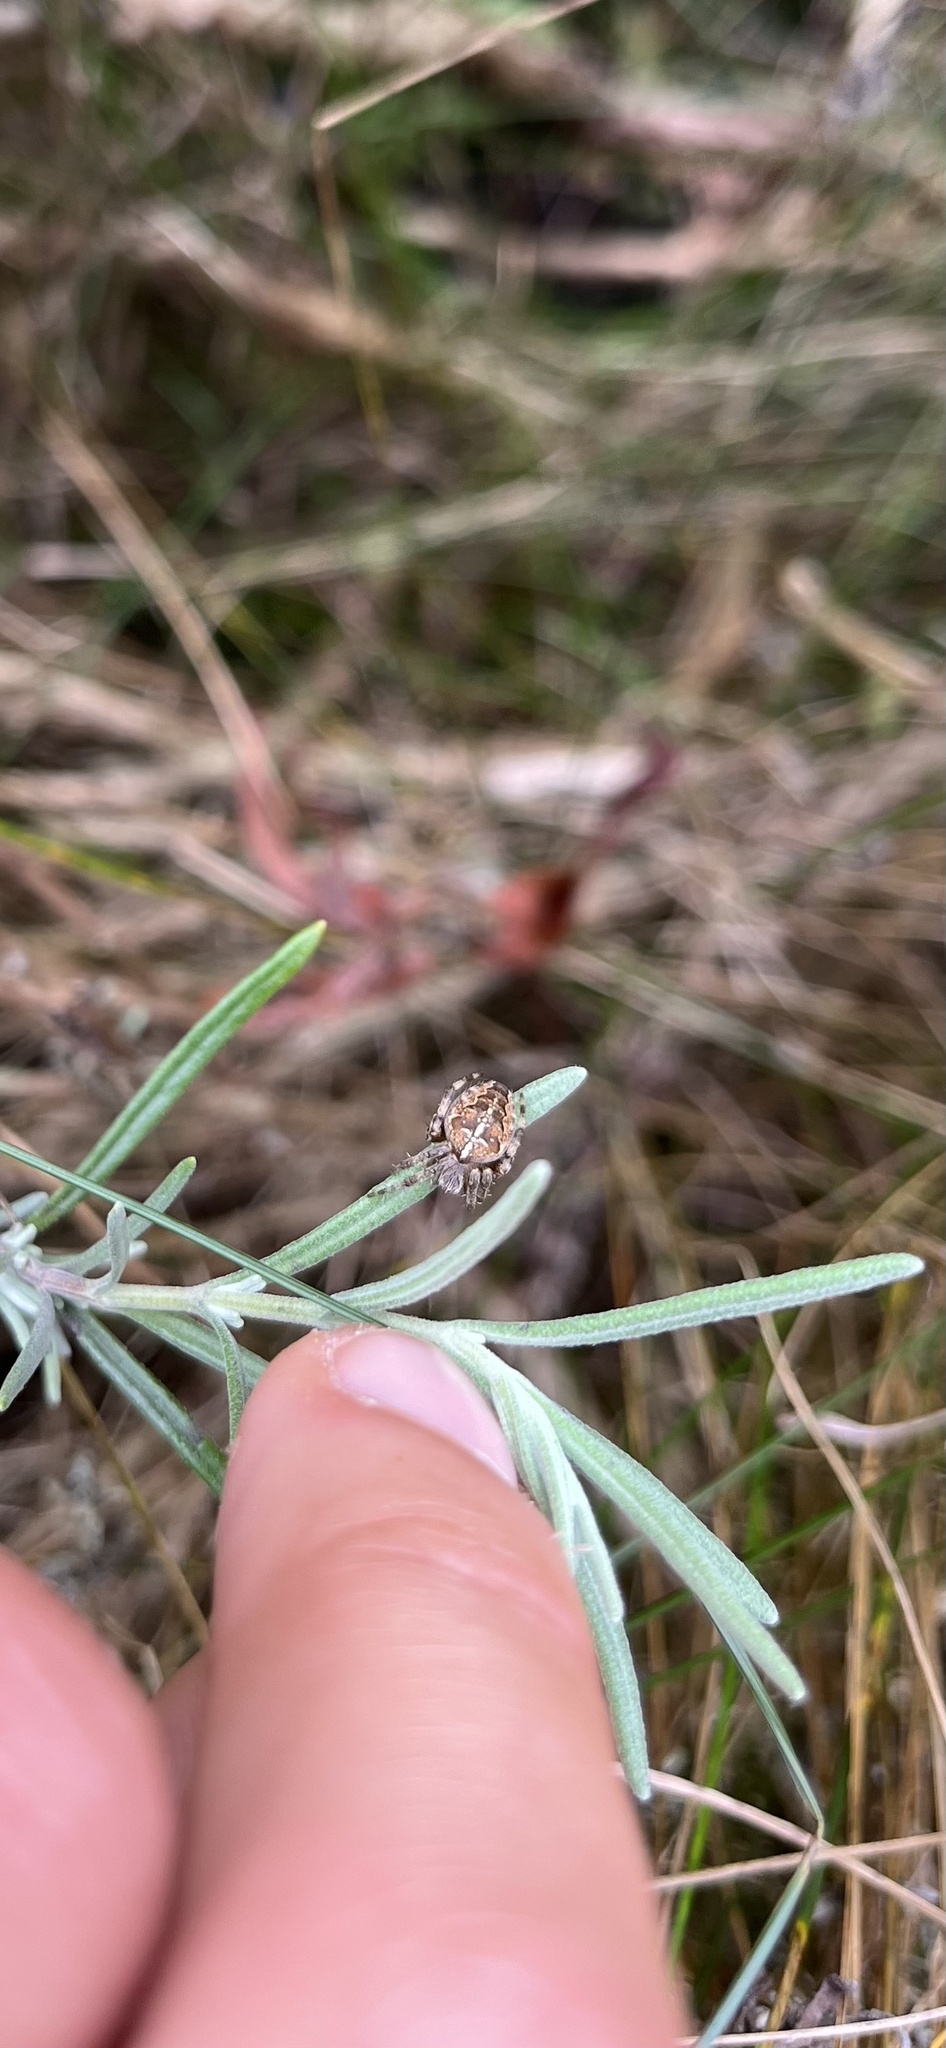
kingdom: Animalia
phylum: Arthropoda
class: Arachnida
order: Araneae
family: Araneidae
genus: Araneus
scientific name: Araneus diadematus
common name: Cross orbweaver
